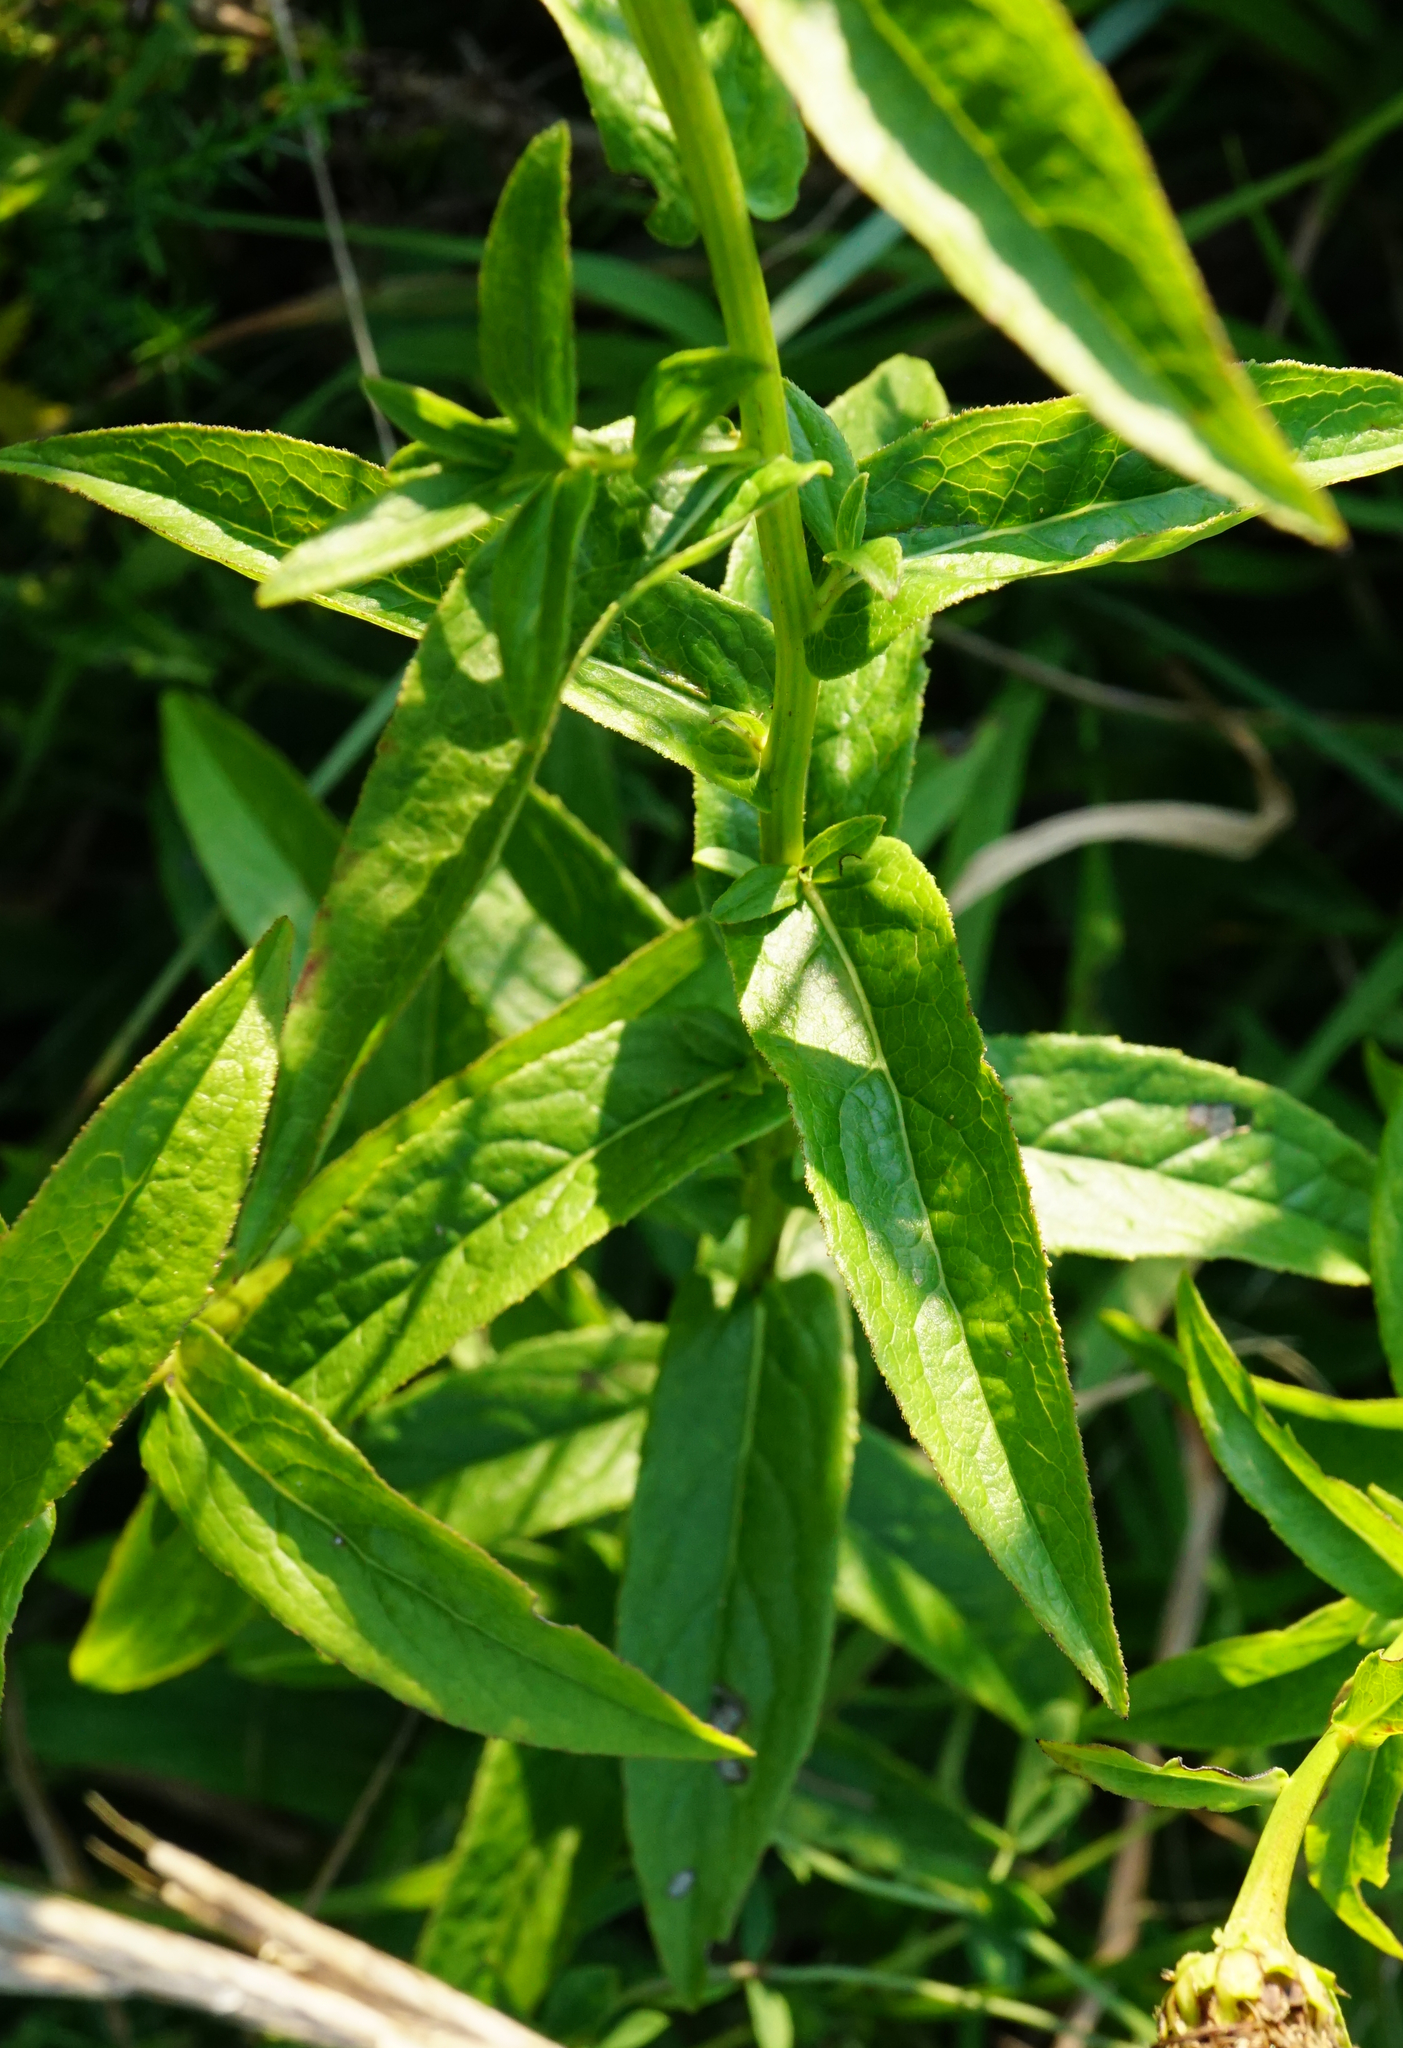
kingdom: Plantae
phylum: Tracheophyta
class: Magnoliopsida
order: Asterales
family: Asteraceae
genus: Pentanema
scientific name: Pentanema salicinum
